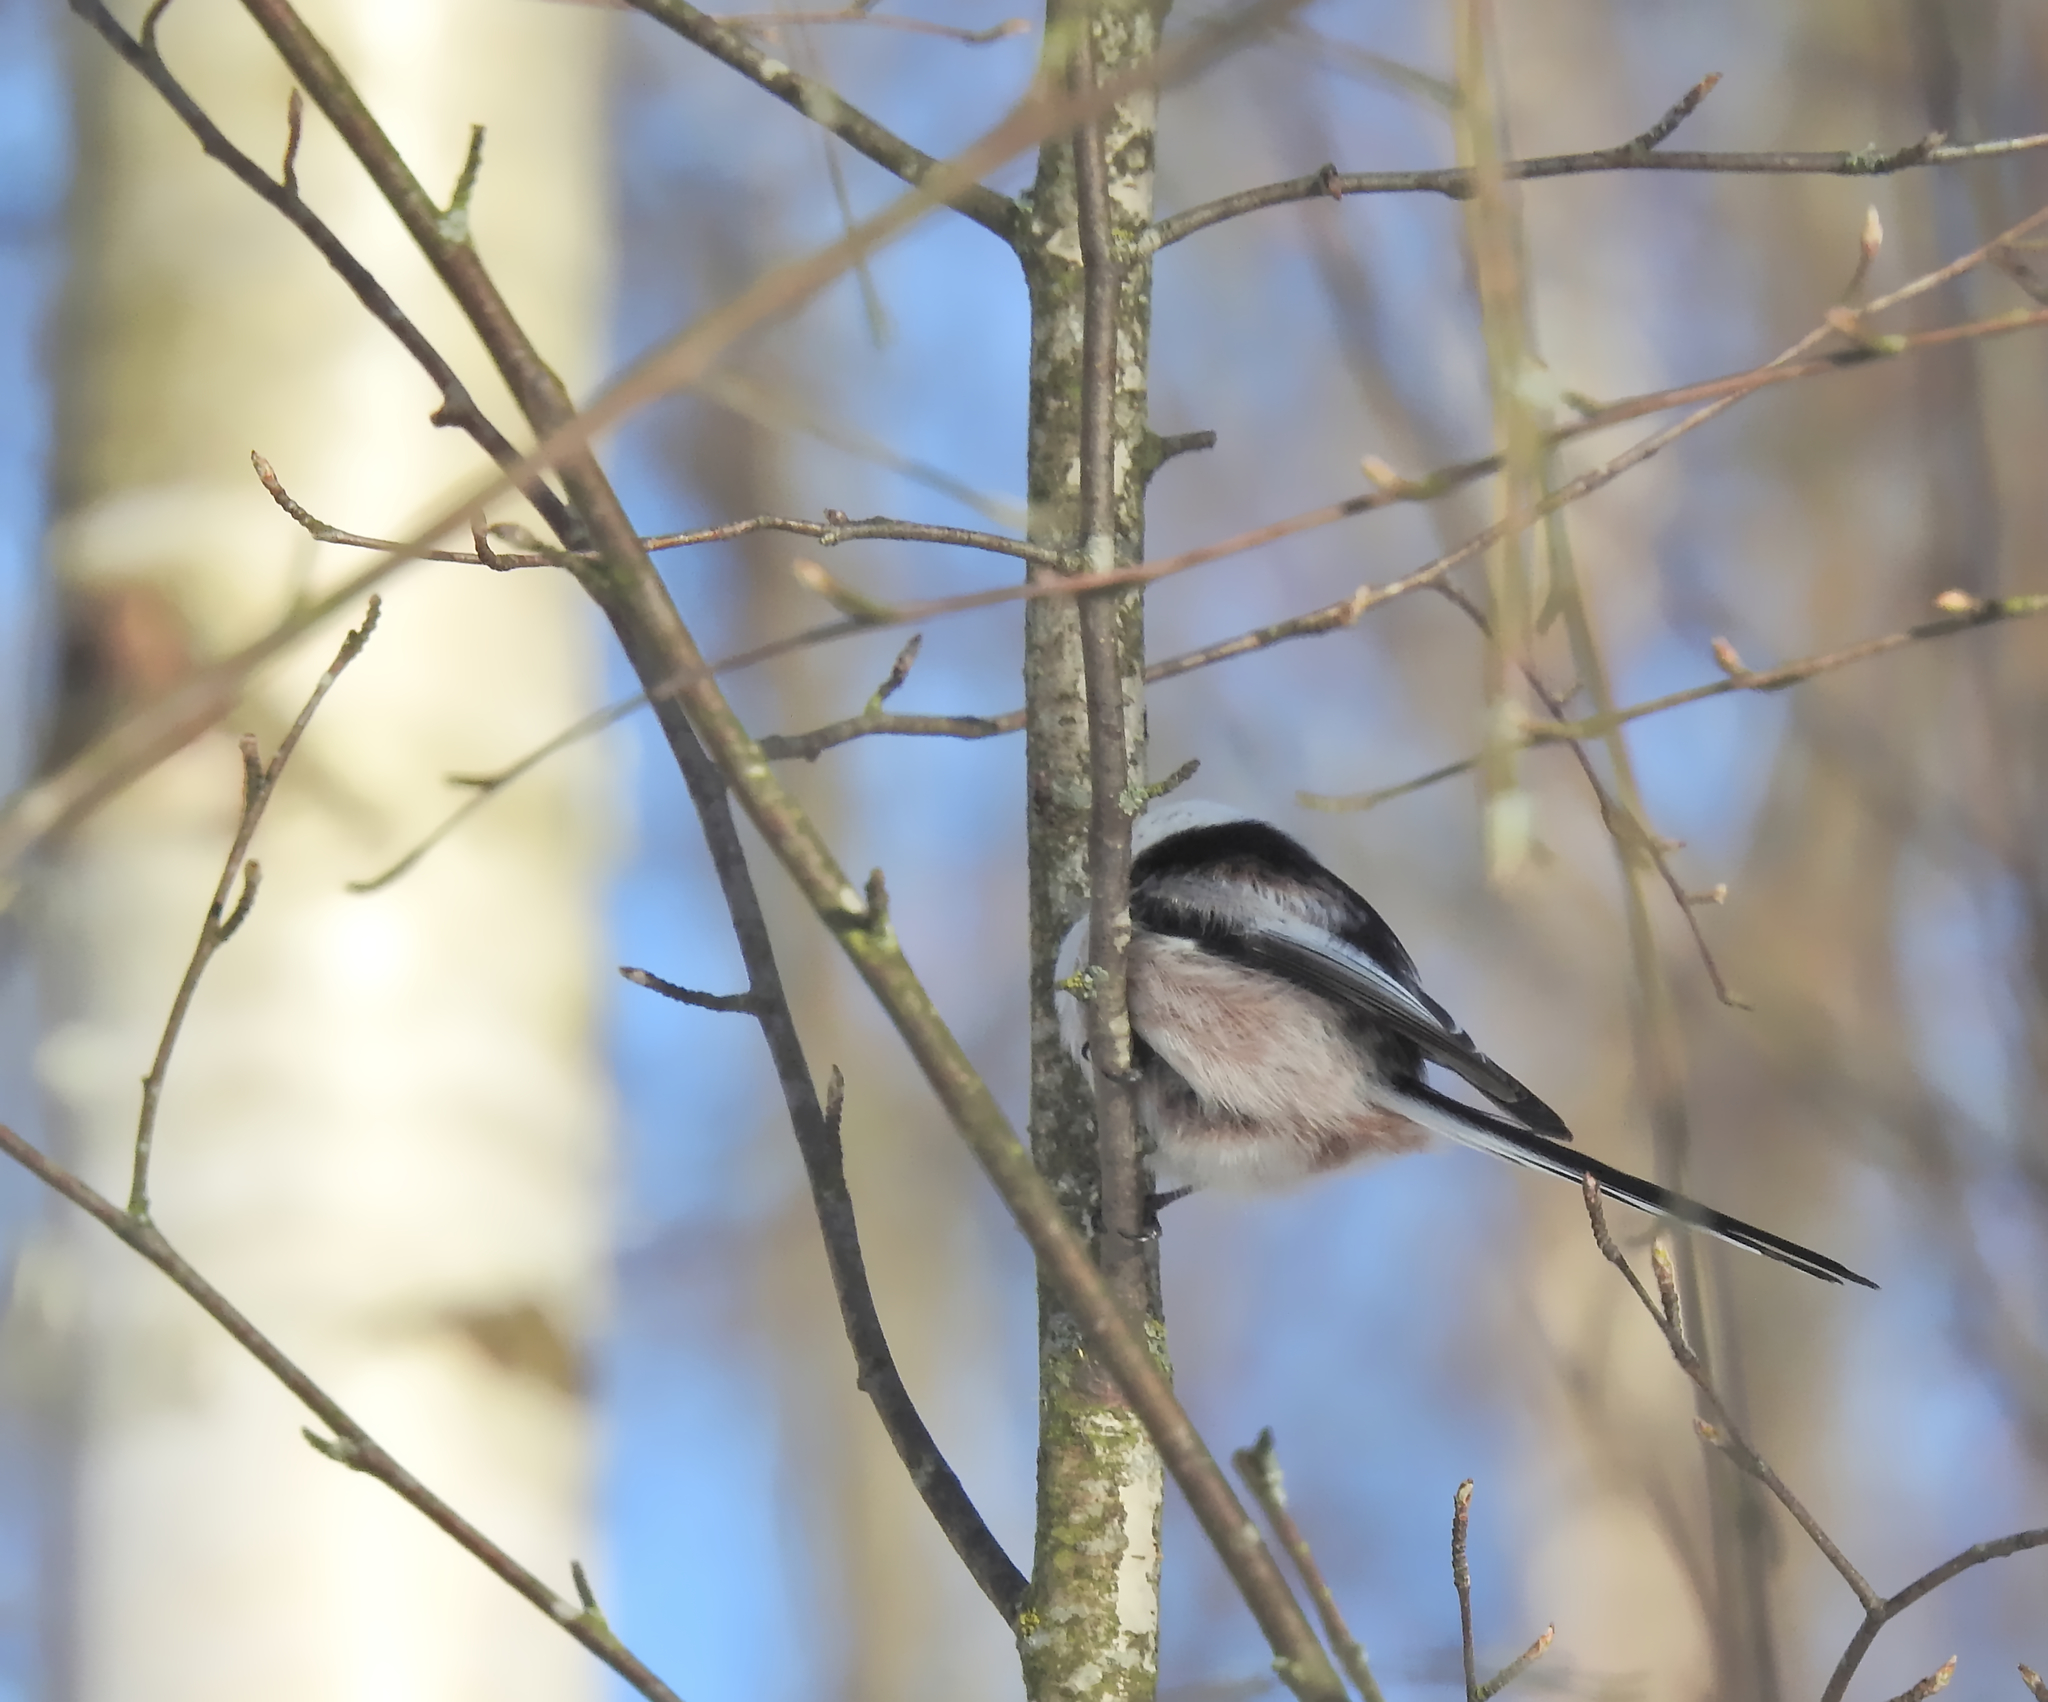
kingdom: Animalia
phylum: Chordata
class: Aves
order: Passeriformes
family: Aegithalidae
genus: Aegithalos
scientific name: Aegithalos caudatus
